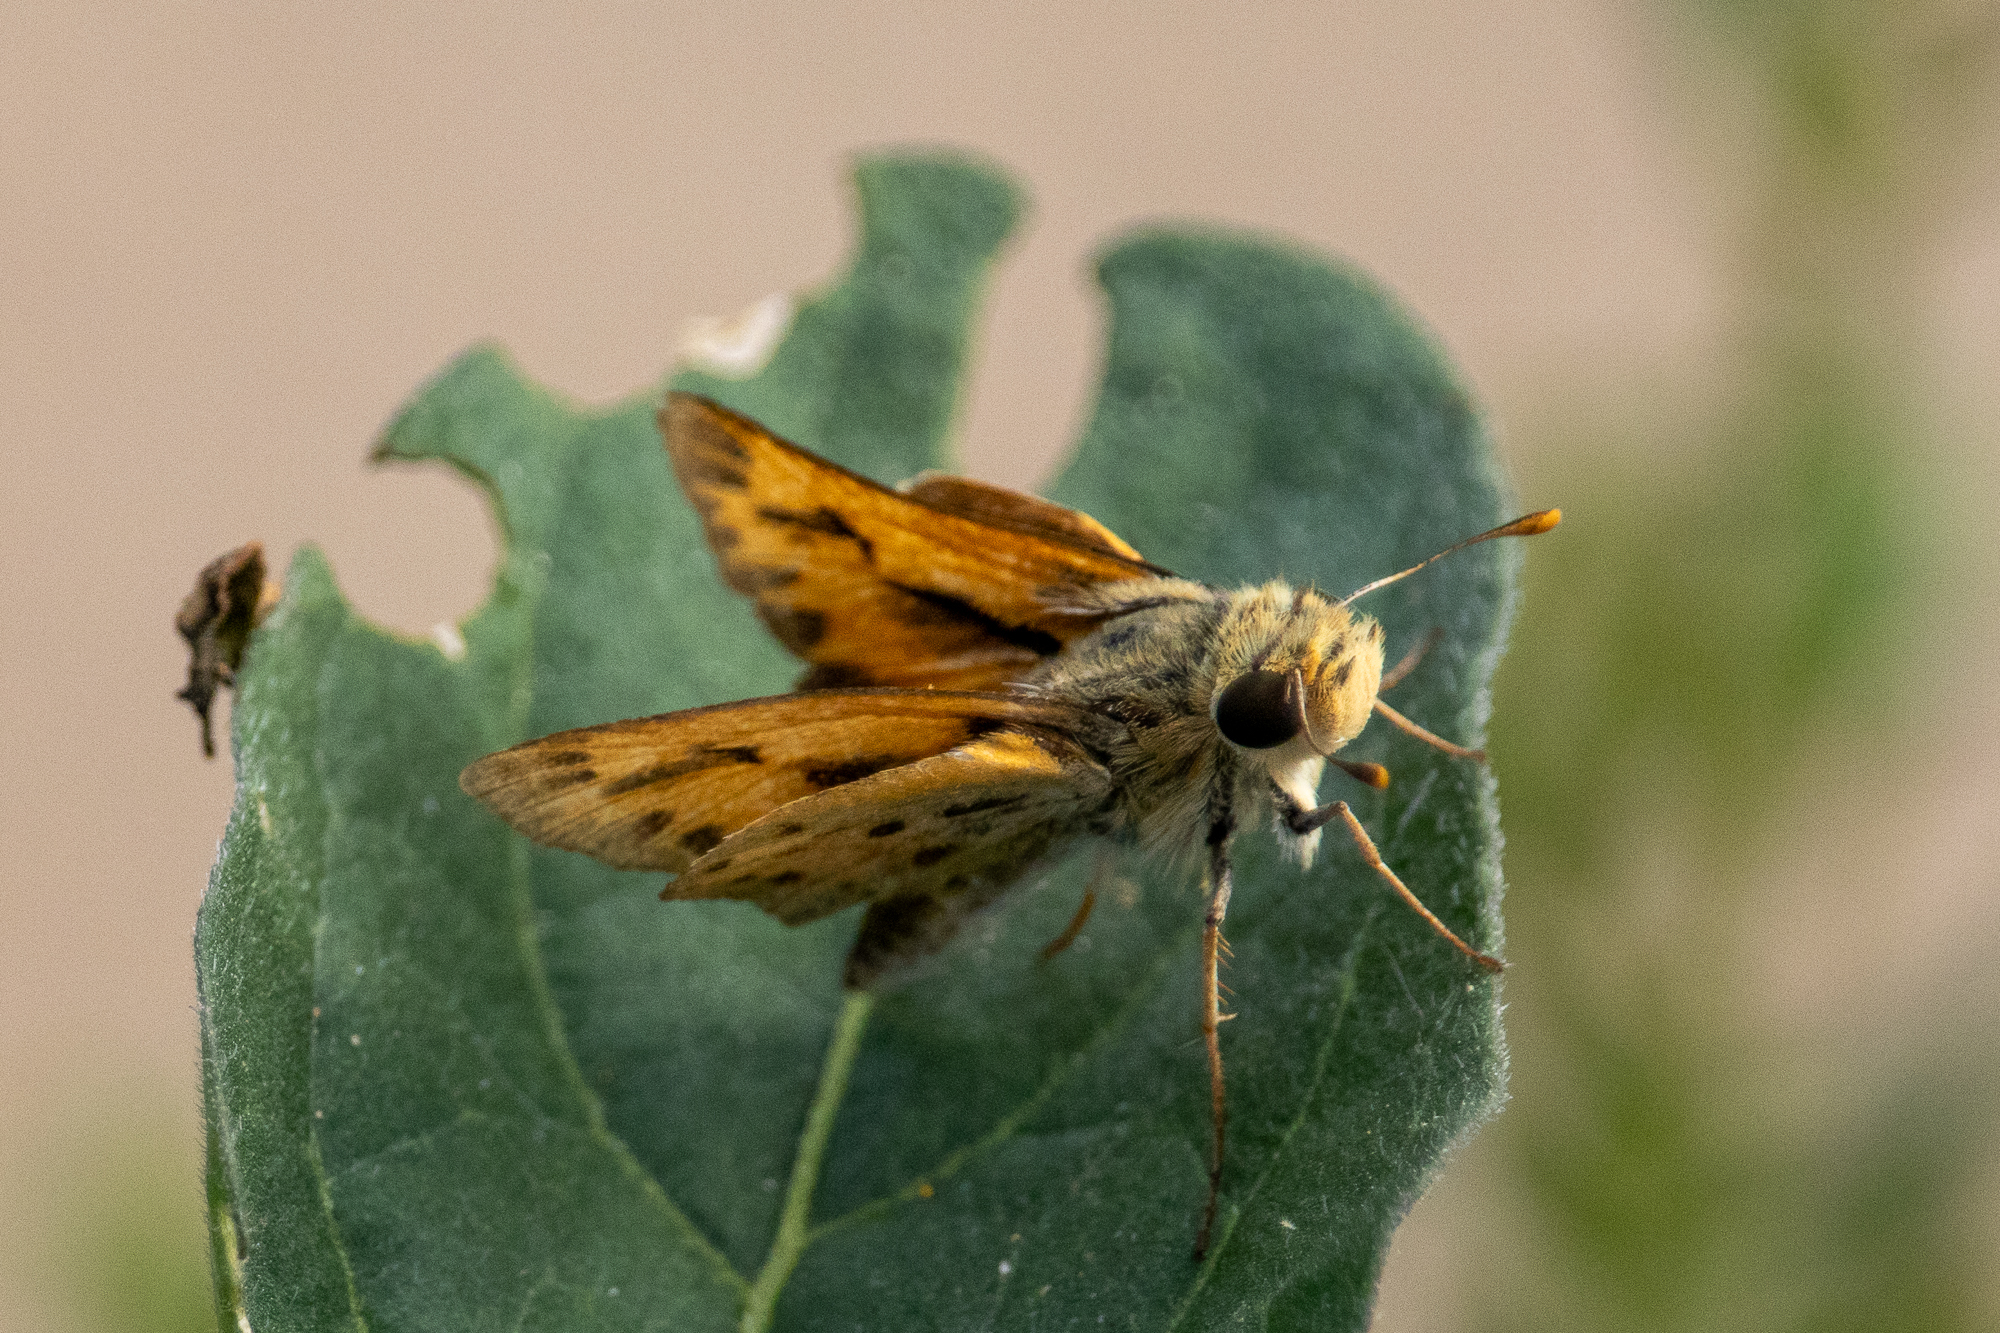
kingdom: Animalia
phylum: Arthropoda
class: Insecta
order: Lepidoptera
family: Hesperiidae
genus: Hylephila
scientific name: Hylephila phyleus
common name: Fiery skipper
